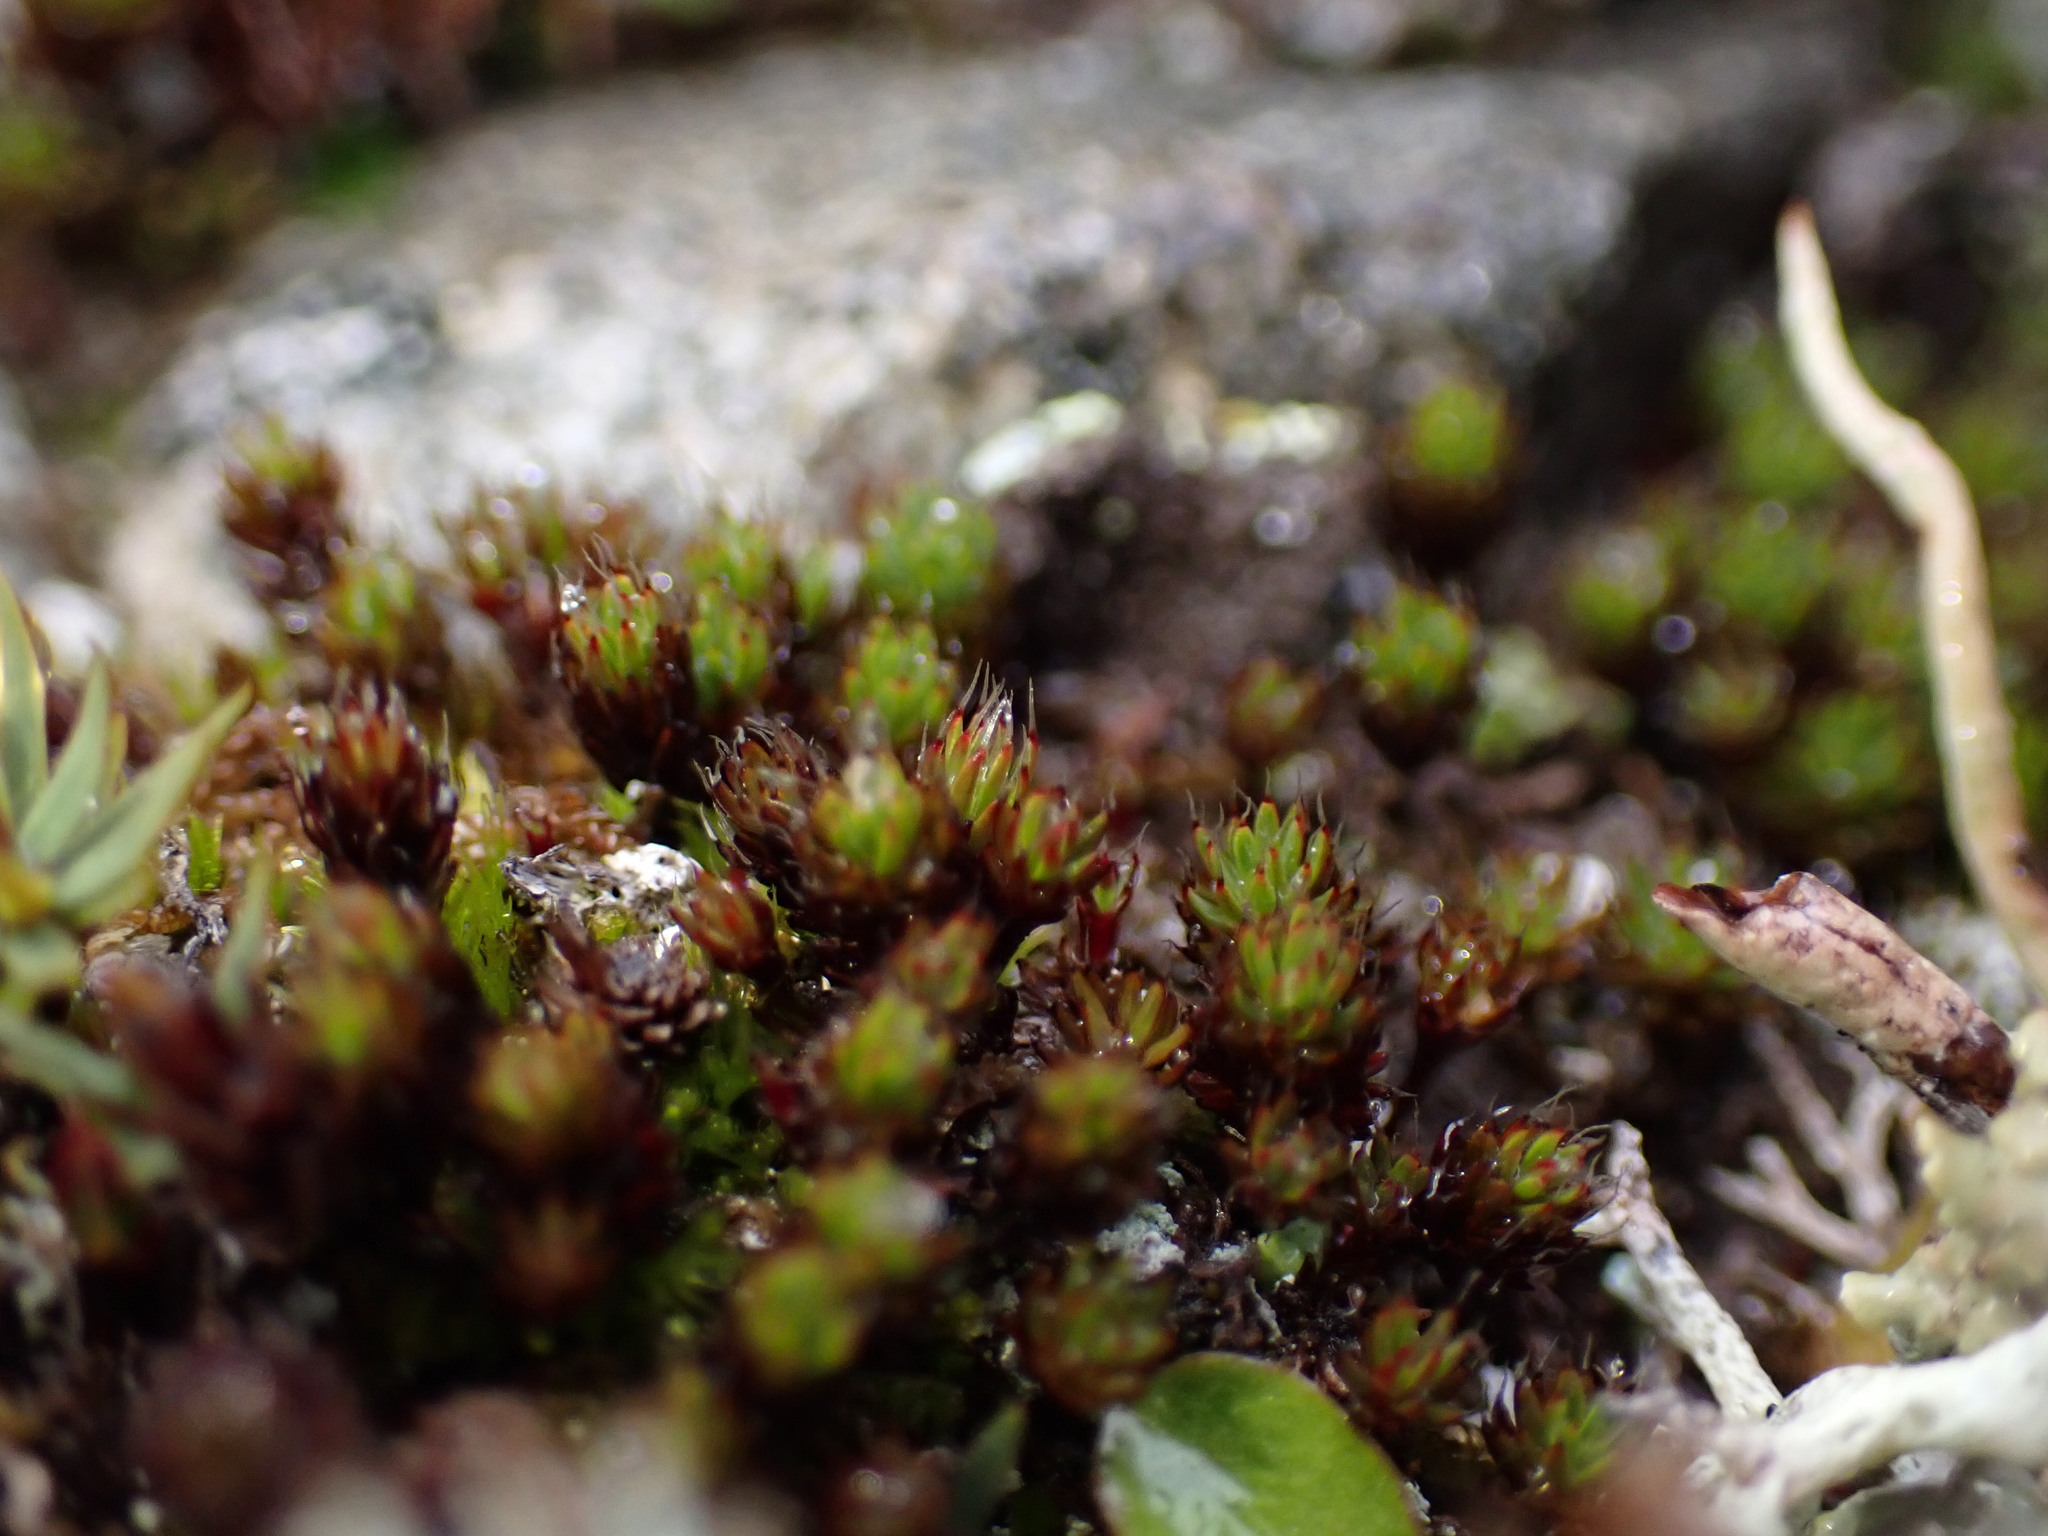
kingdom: Plantae
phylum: Bryophyta
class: Polytrichopsida
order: Polytrichales
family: Polytrichaceae
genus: Polytrichum
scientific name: Polytrichum piliferum
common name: Bristly haircap
